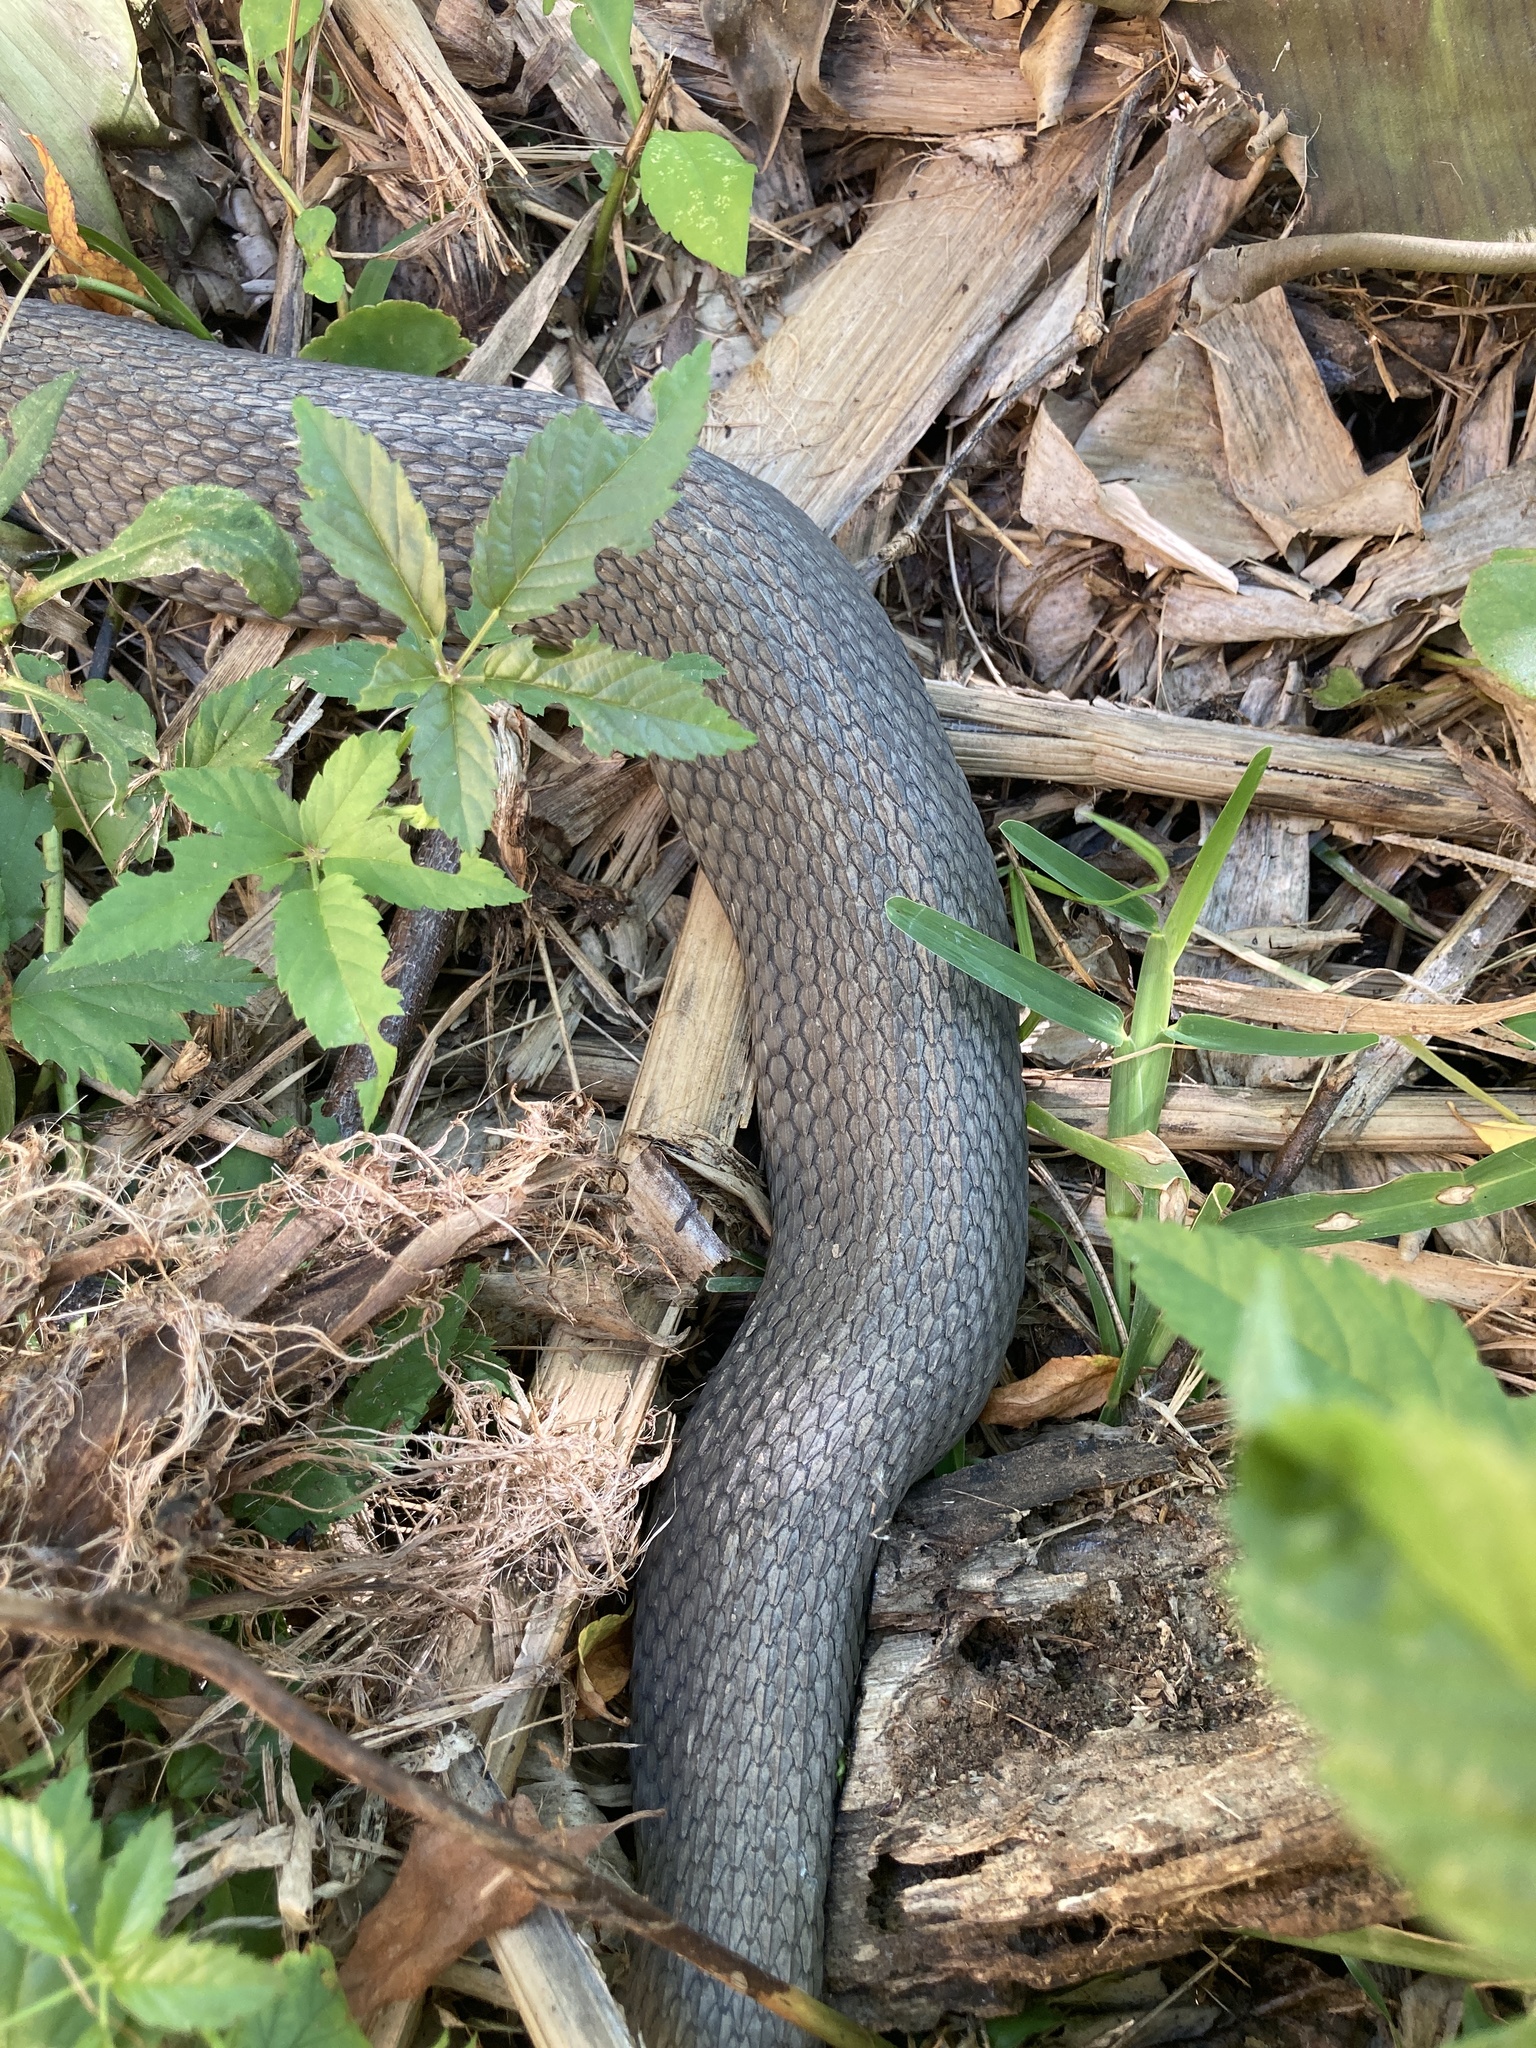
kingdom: Animalia
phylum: Chordata
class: Squamata
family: Colubridae
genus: Nerodia
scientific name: Nerodia erythrogaster
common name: Plainbelly water snake
